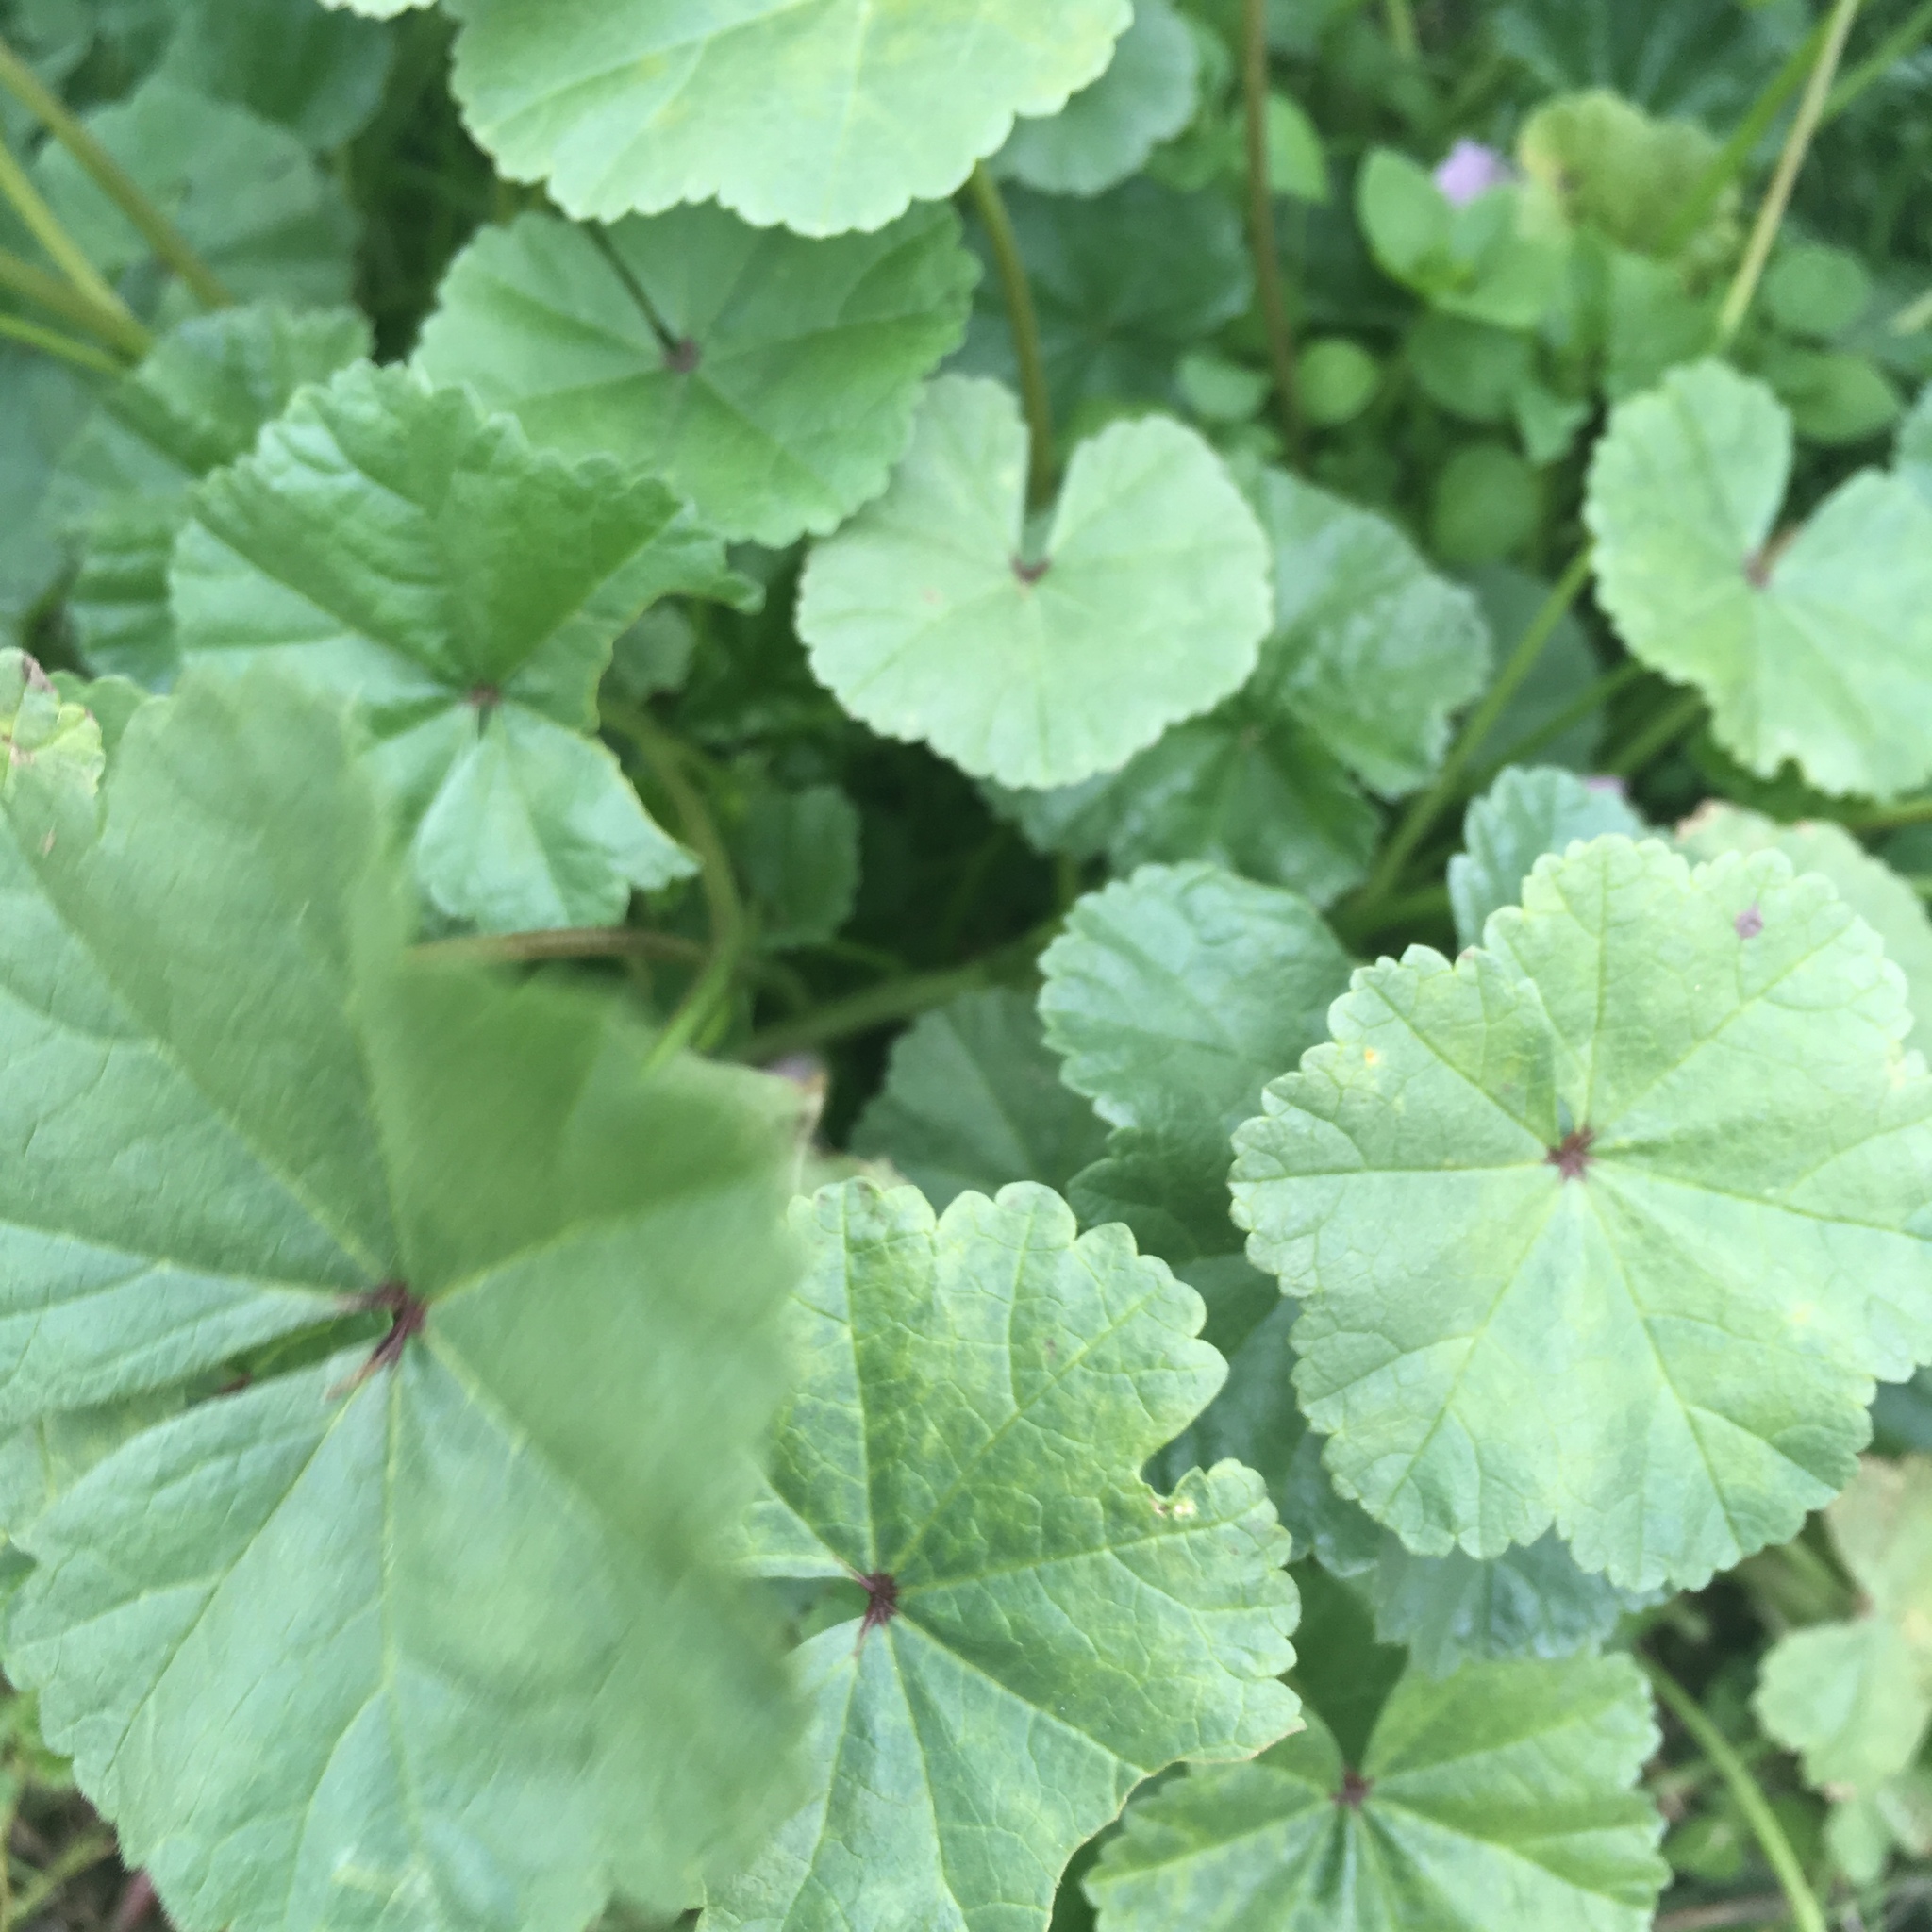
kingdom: Plantae
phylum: Tracheophyta
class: Magnoliopsida
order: Malvales
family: Malvaceae
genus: Malva
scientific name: Malva neglecta
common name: Common mallow
